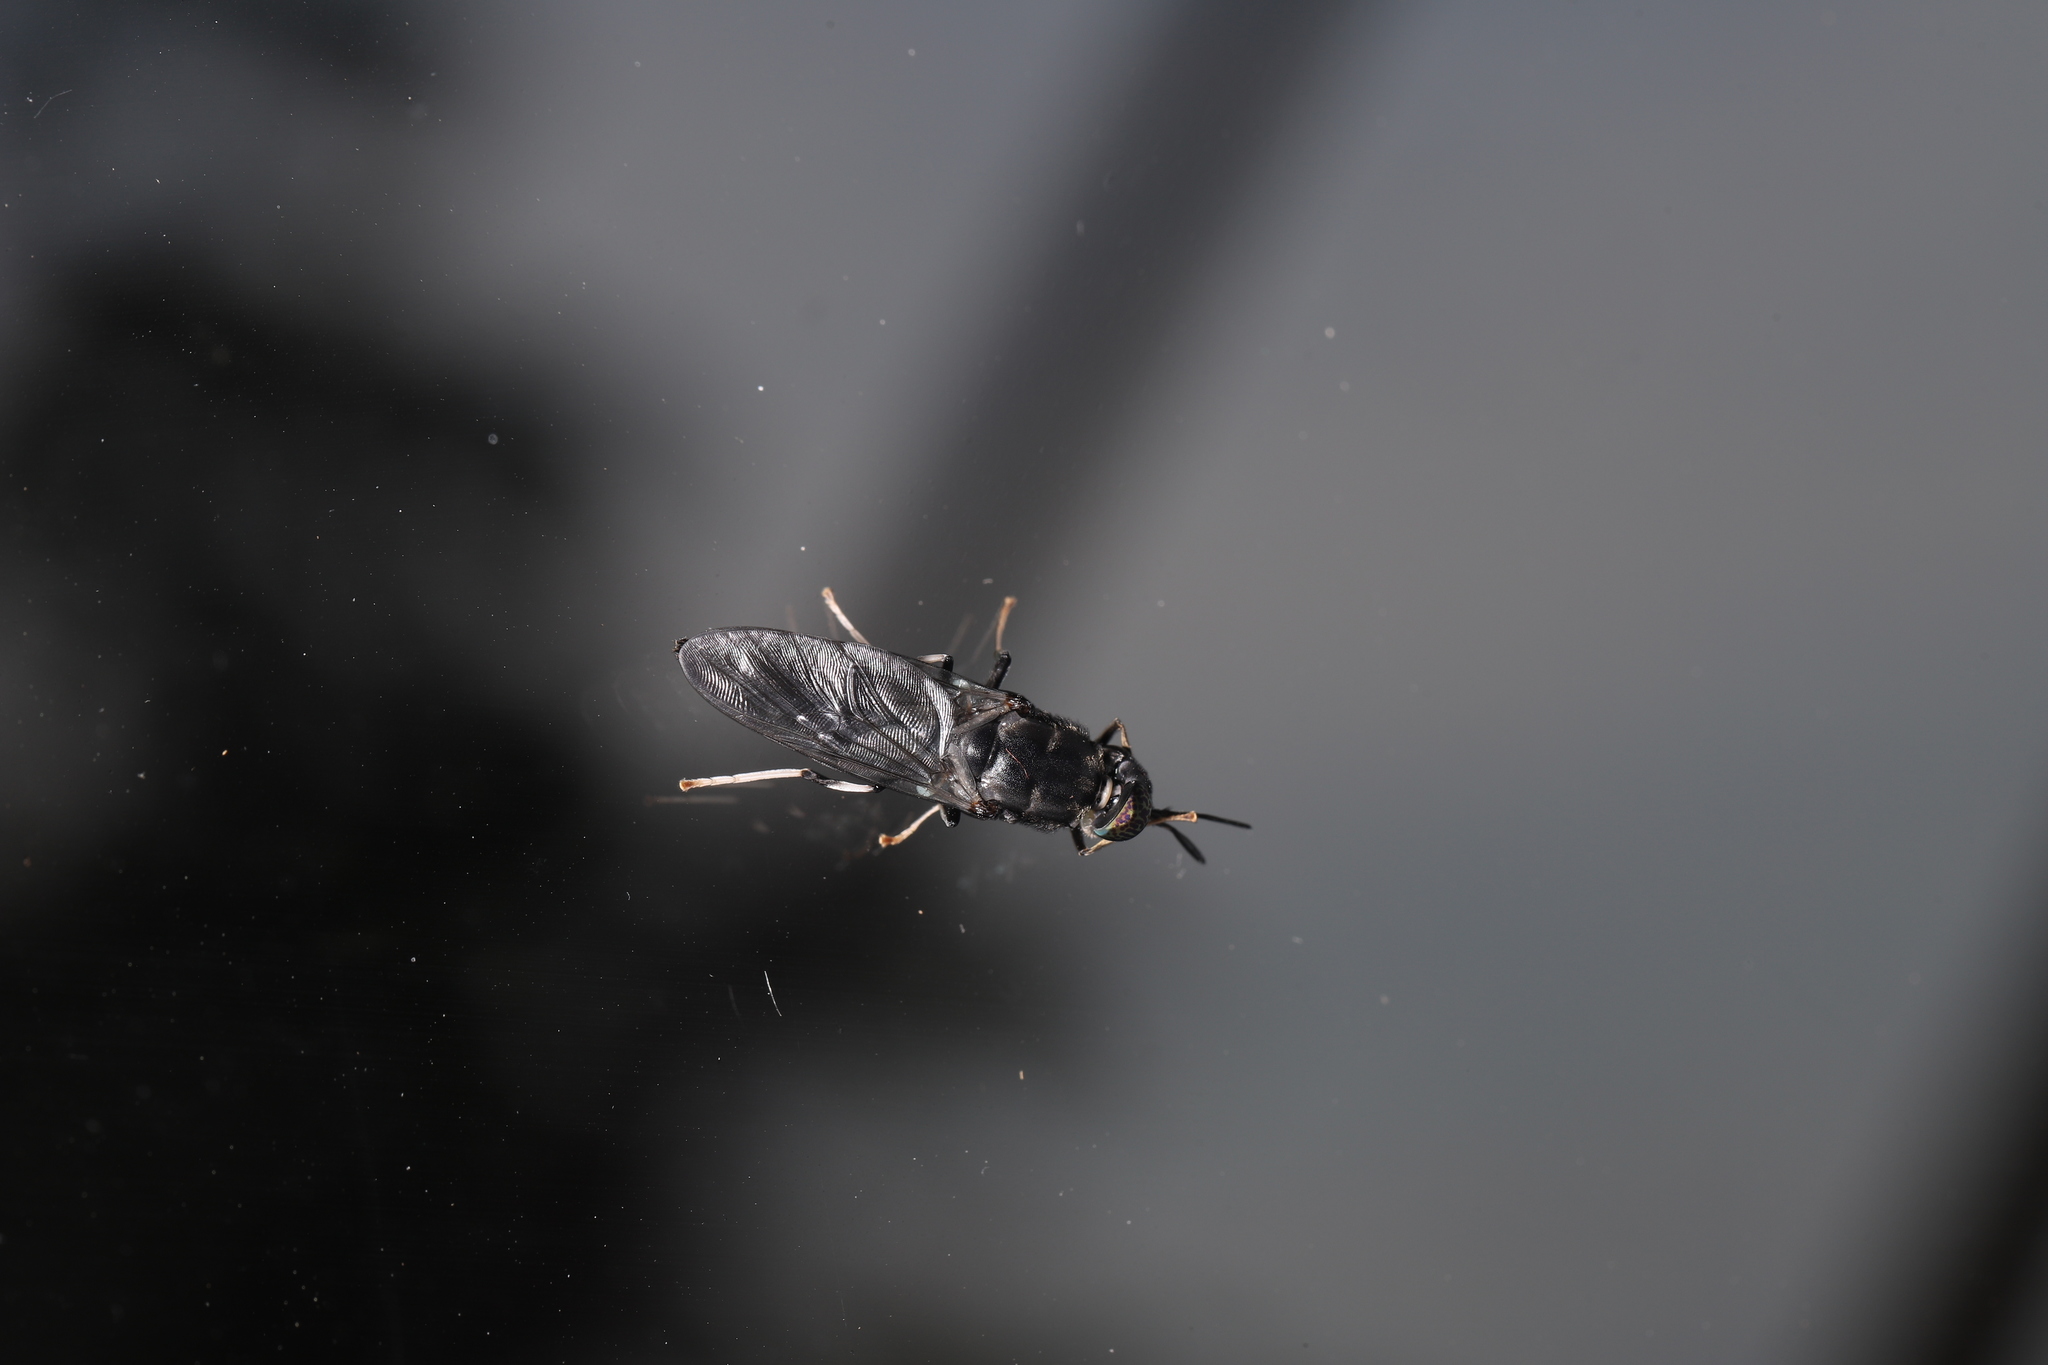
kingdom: Animalia
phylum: Arthropoda
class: Insecta
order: Diptera
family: Stratiomyidae
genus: Hermetia
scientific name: Hermetia illucens
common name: Black soldier fly
